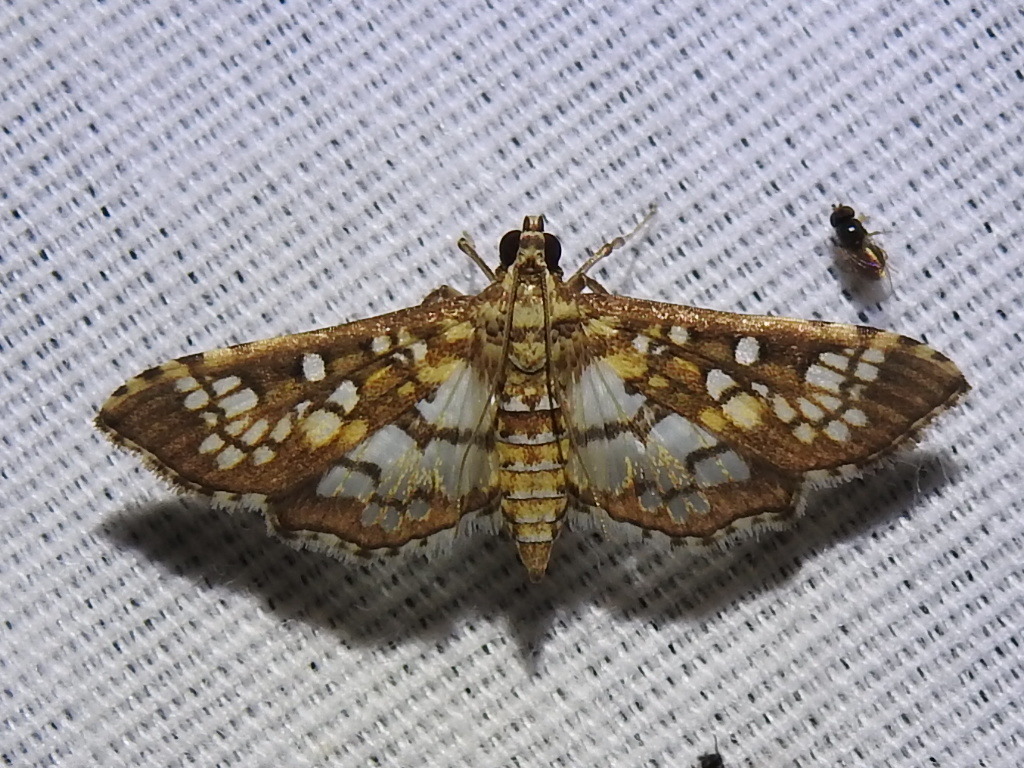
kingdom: Animalia
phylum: Arthropoda
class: Insecta
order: Lepidoptera
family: Crambidae
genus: Samea
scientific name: Samea ecclesialis
